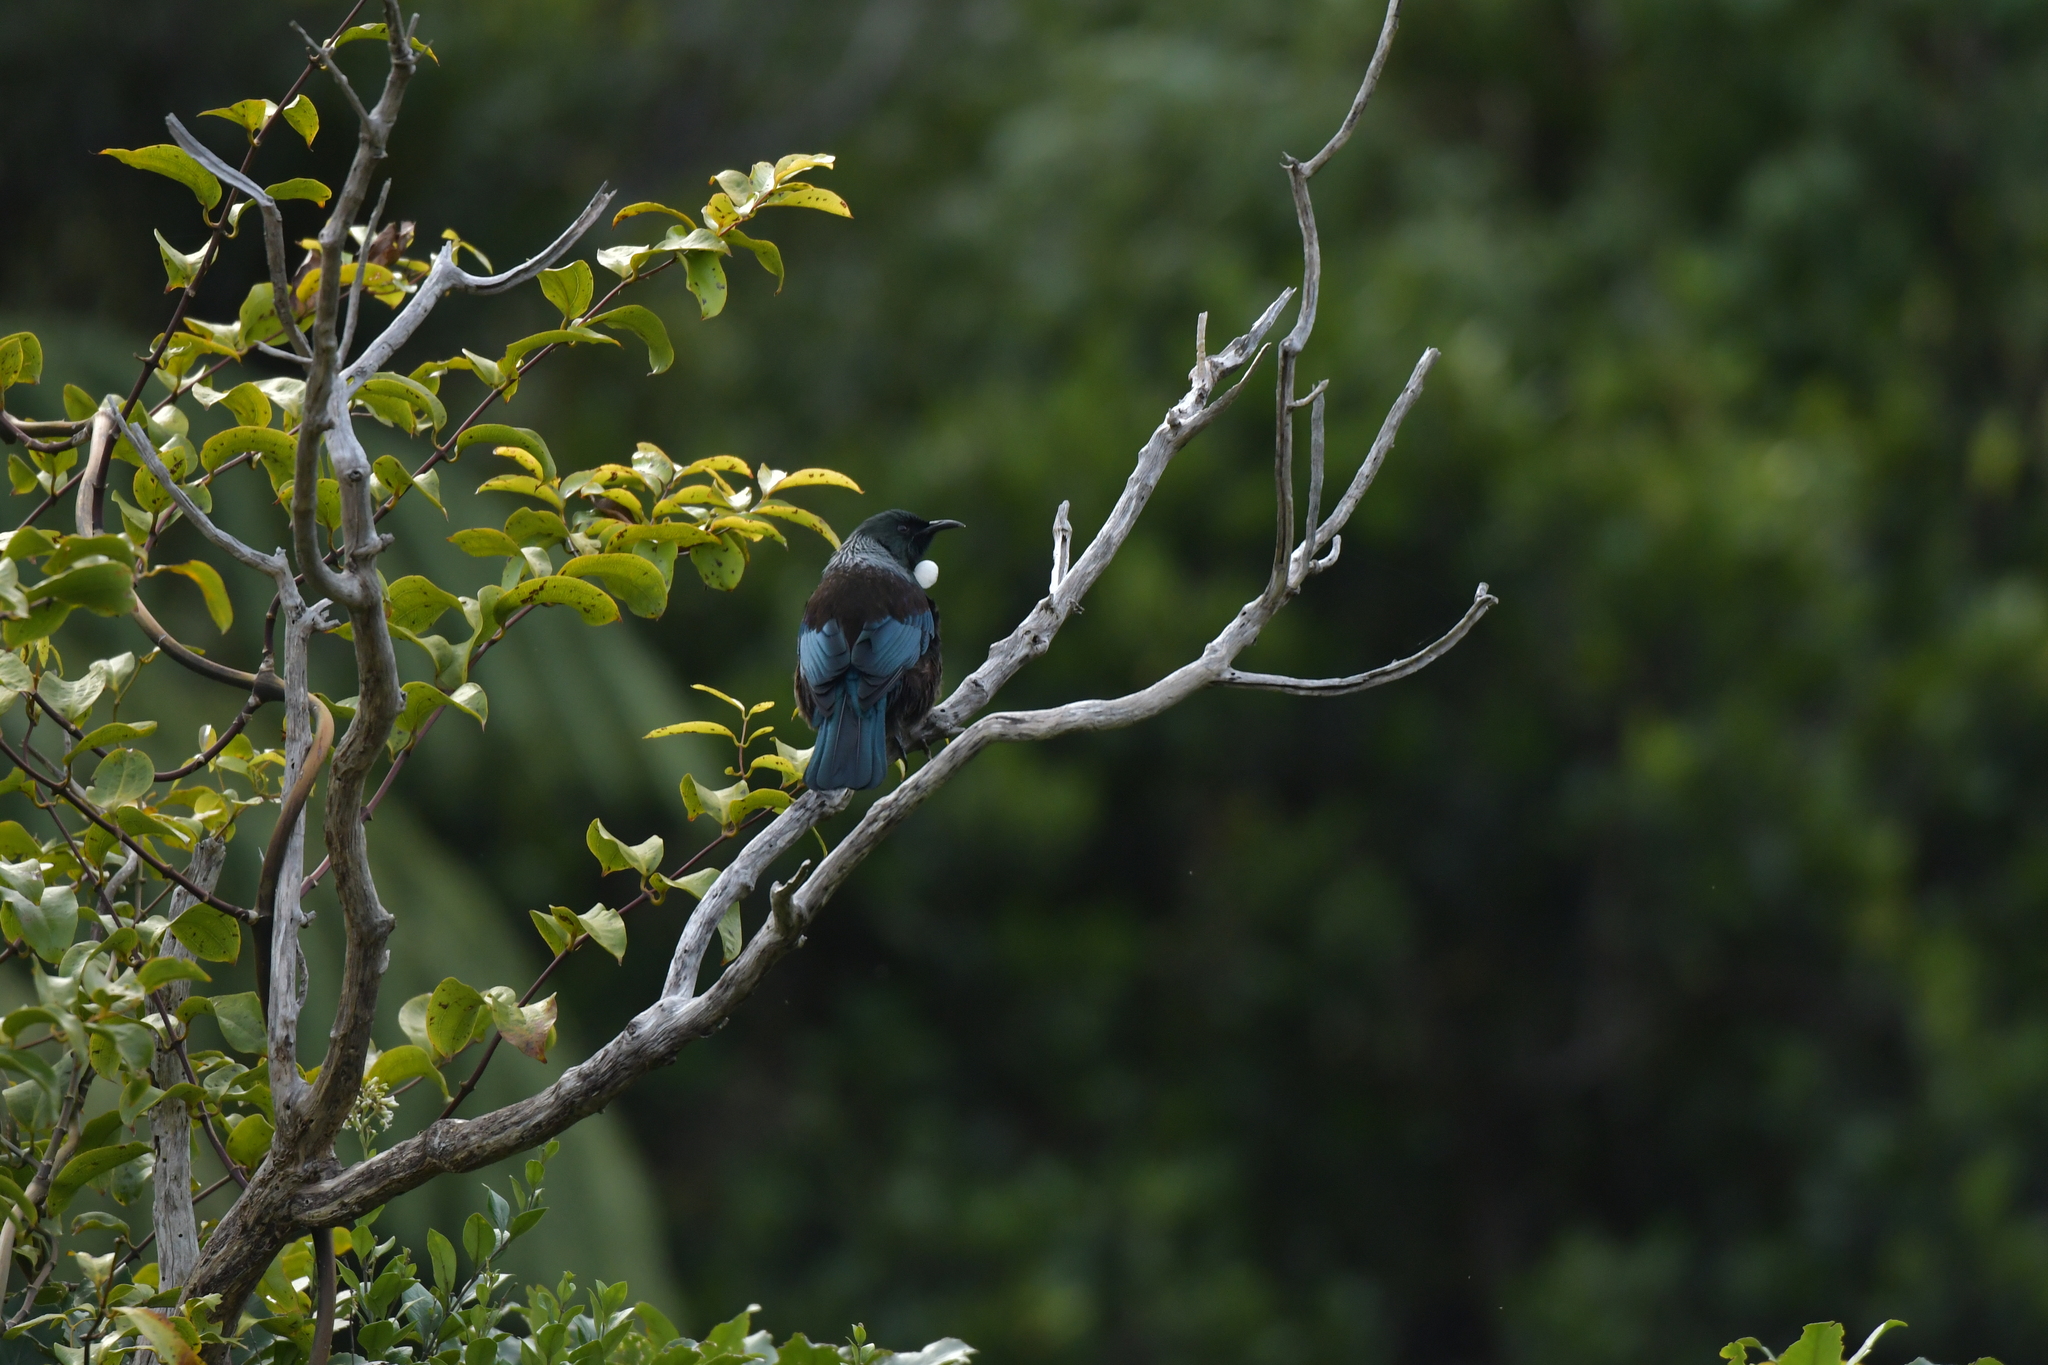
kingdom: Animalia
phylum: Chordata
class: Aves
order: Passeriformes
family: Meliphagidae
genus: Prosthemadera
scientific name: Prosthemadera novaeseelandiae
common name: Tui
